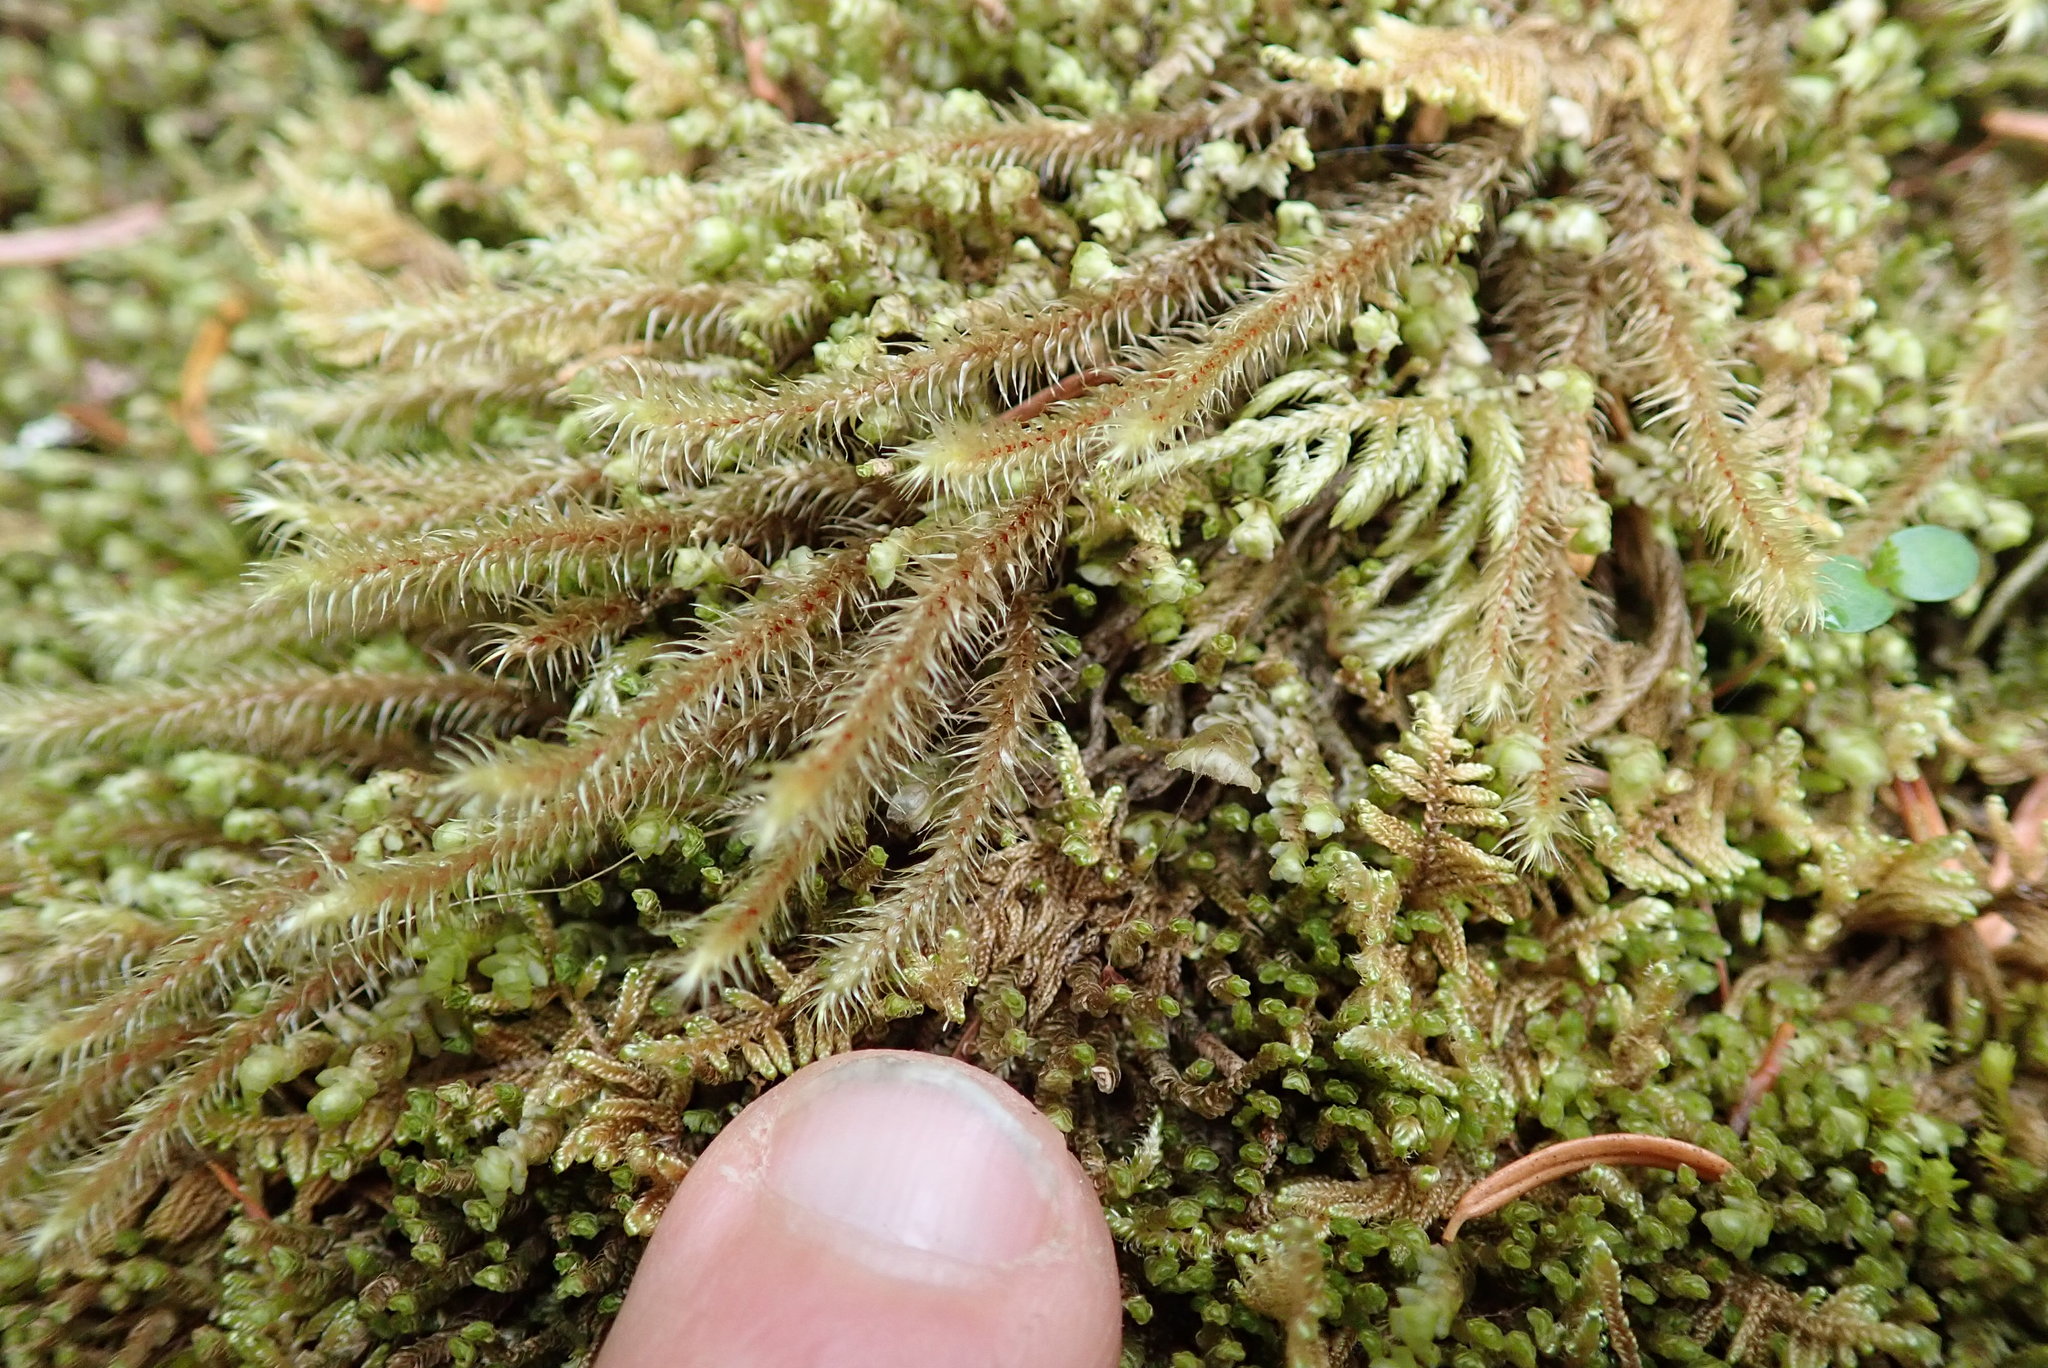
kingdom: Plantae
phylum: Bryophyta
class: Bryopsida
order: Hypnales
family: Hylocomiaceae
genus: Rhytidiadelphus
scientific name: Rhytidiadelphus loreus
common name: Lanky moss
